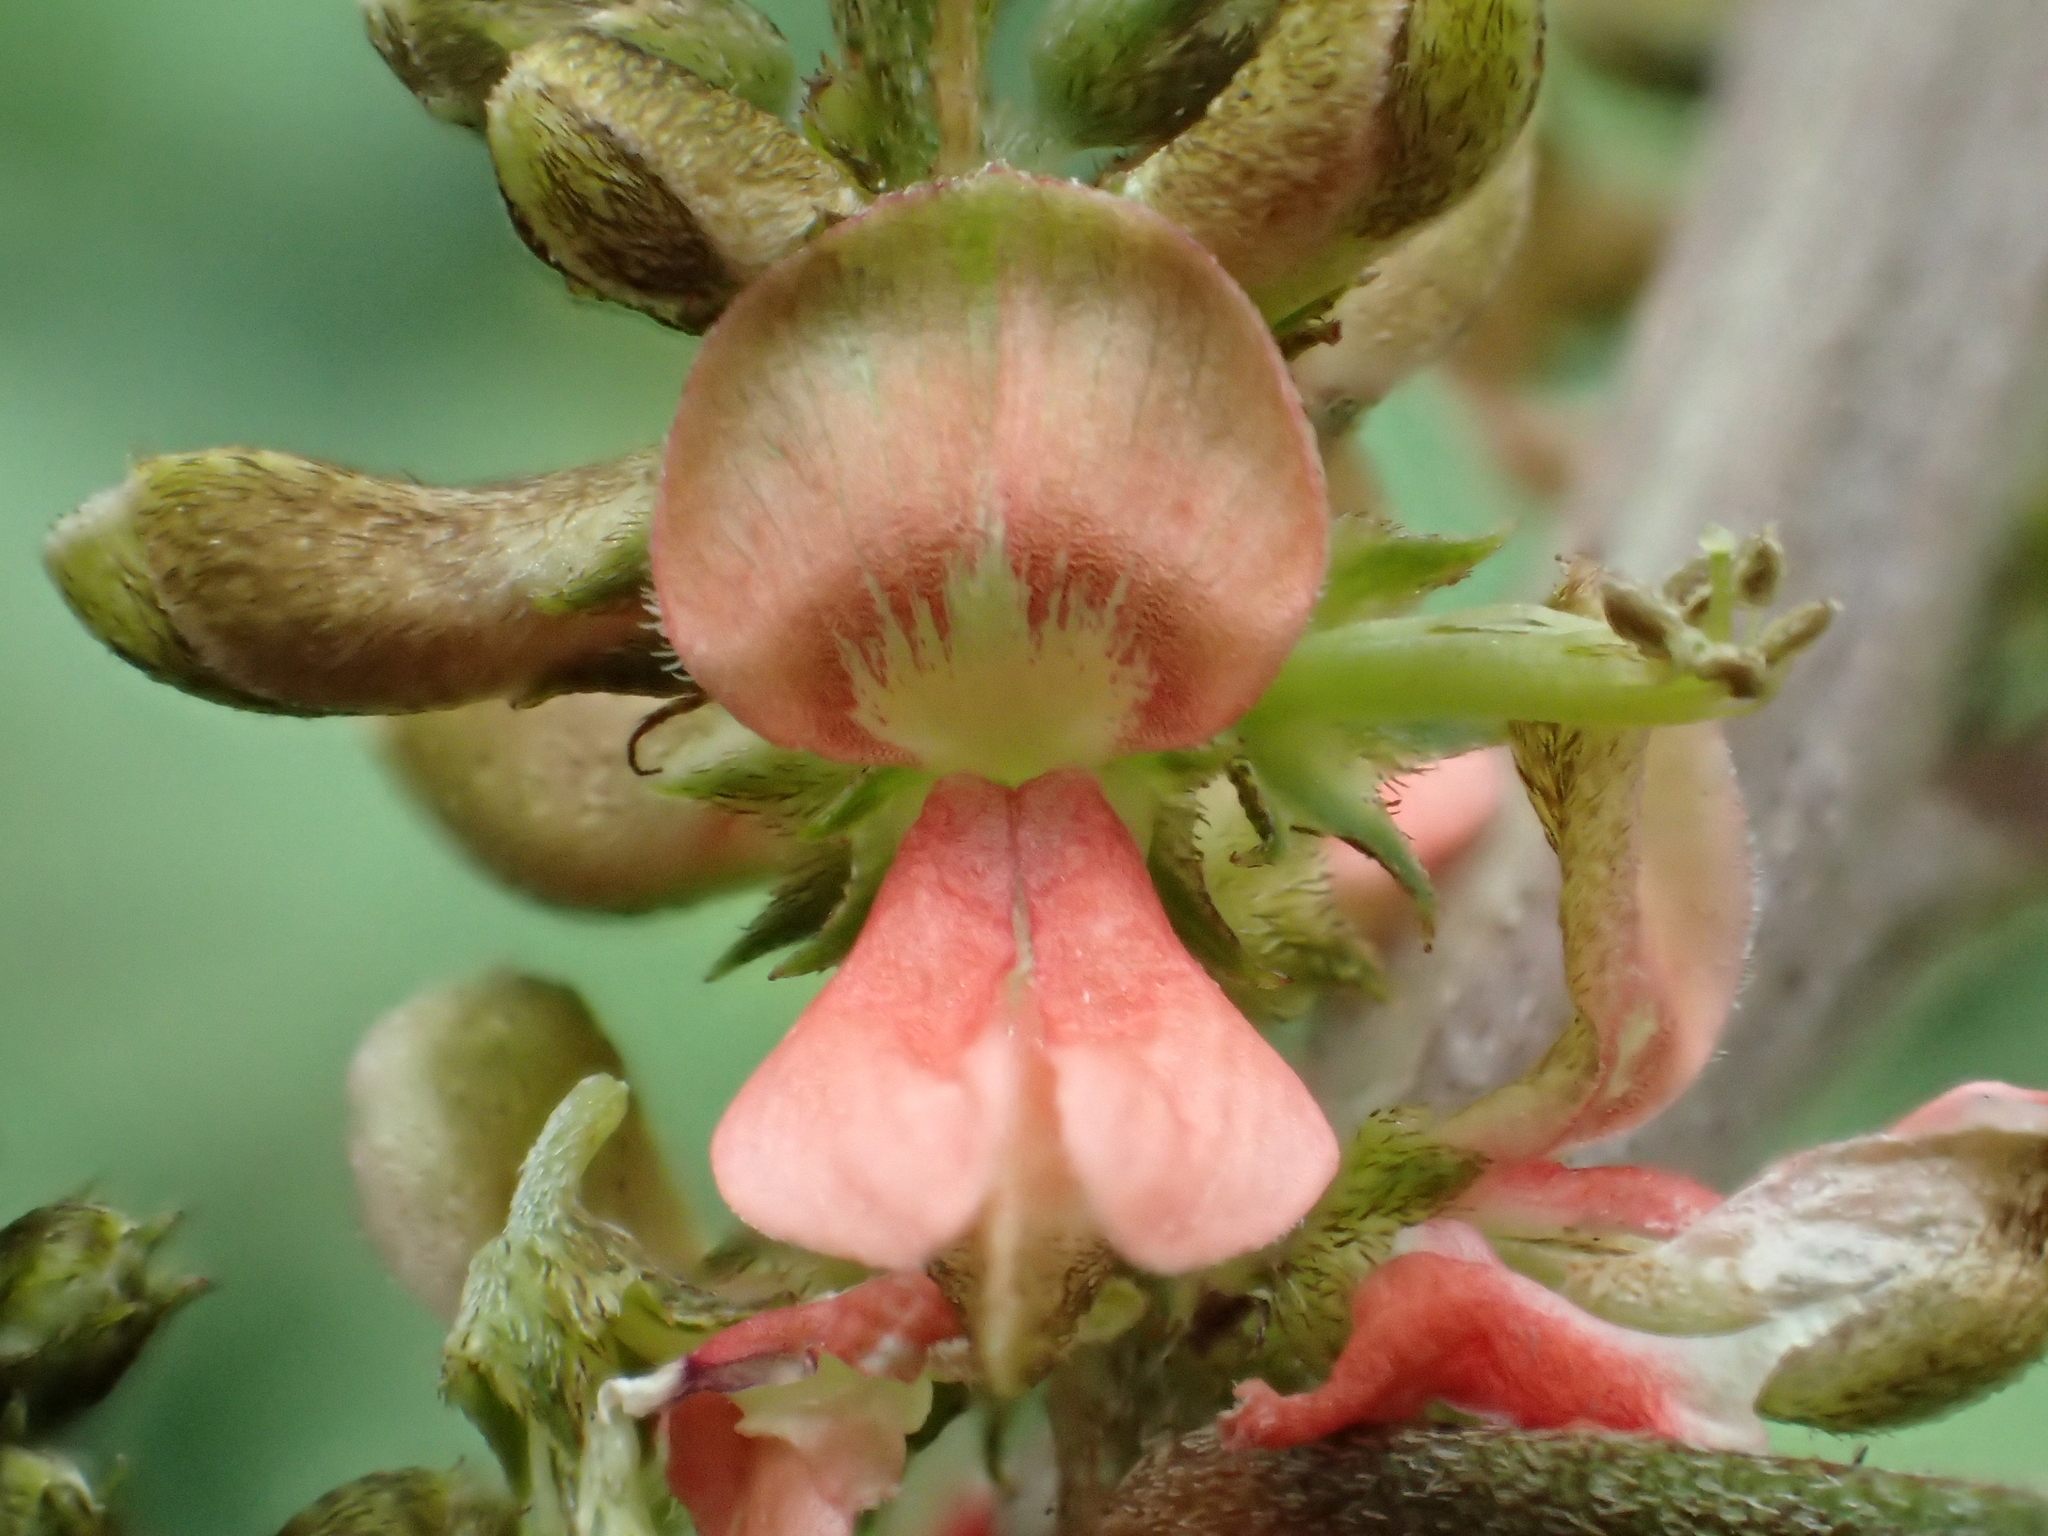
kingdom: Plantae
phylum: Tracheophyta
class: Magnoliopsida
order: Fabales
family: Fabaceae
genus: Indigofera
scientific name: Indigofera suffruticosa
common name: Anil de pasto
